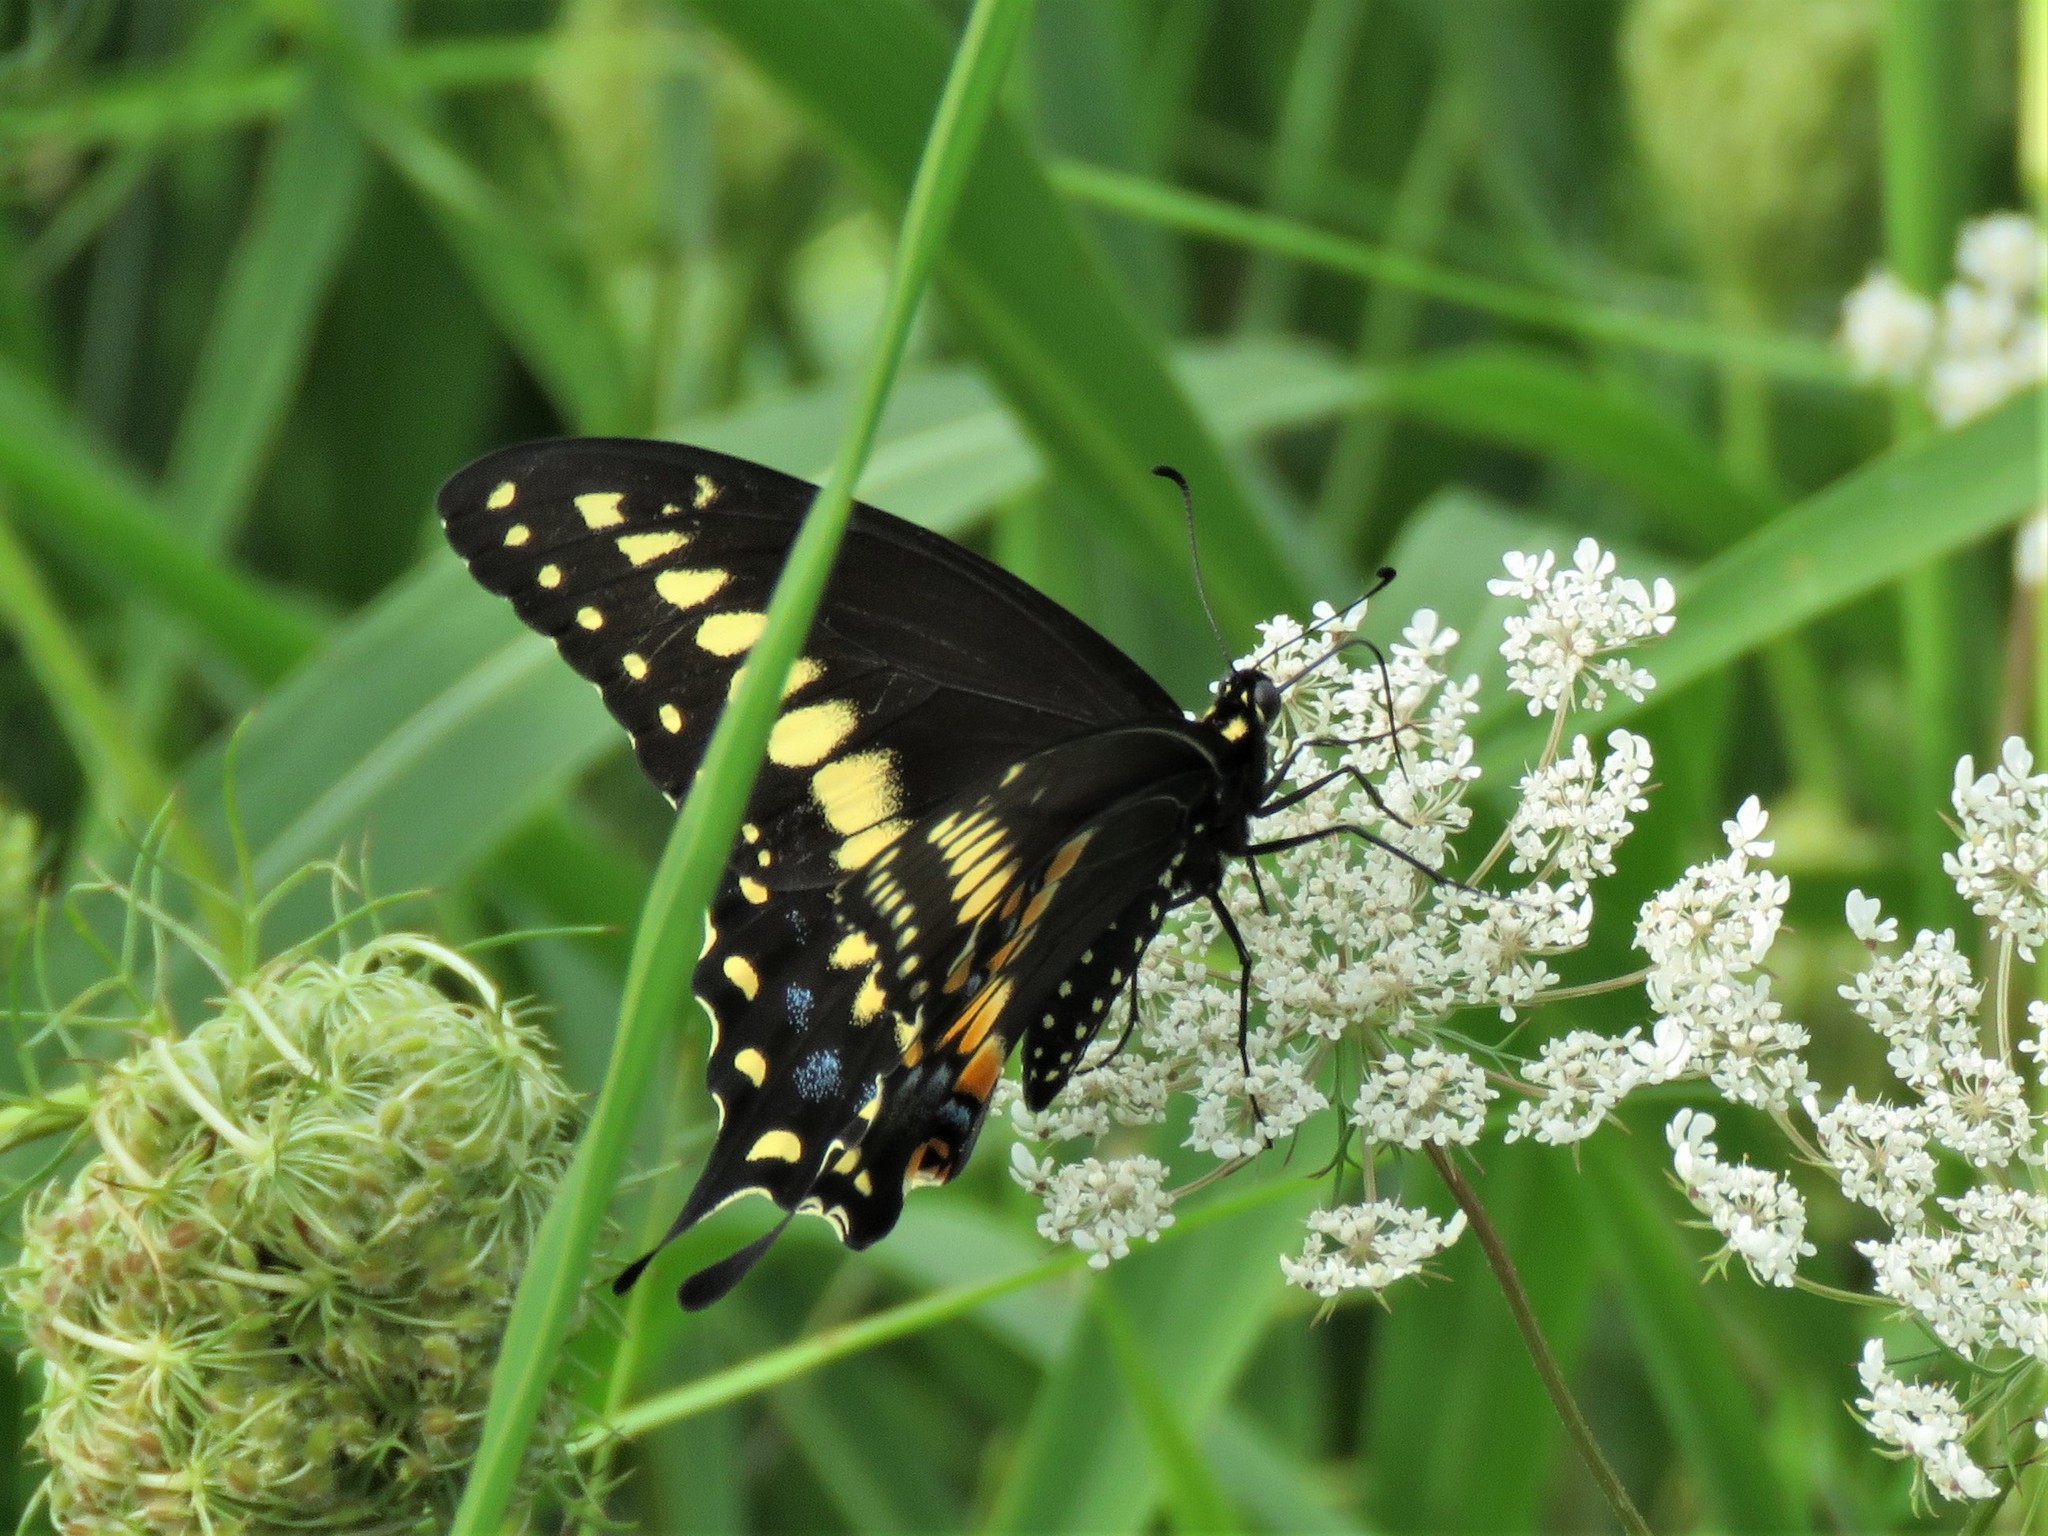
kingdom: Animalia
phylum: Arthropoda
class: Insecta
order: Lepidoptera
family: Papilionidae
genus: Papilio
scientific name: Papilio polyxenes
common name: Black swallowtail
